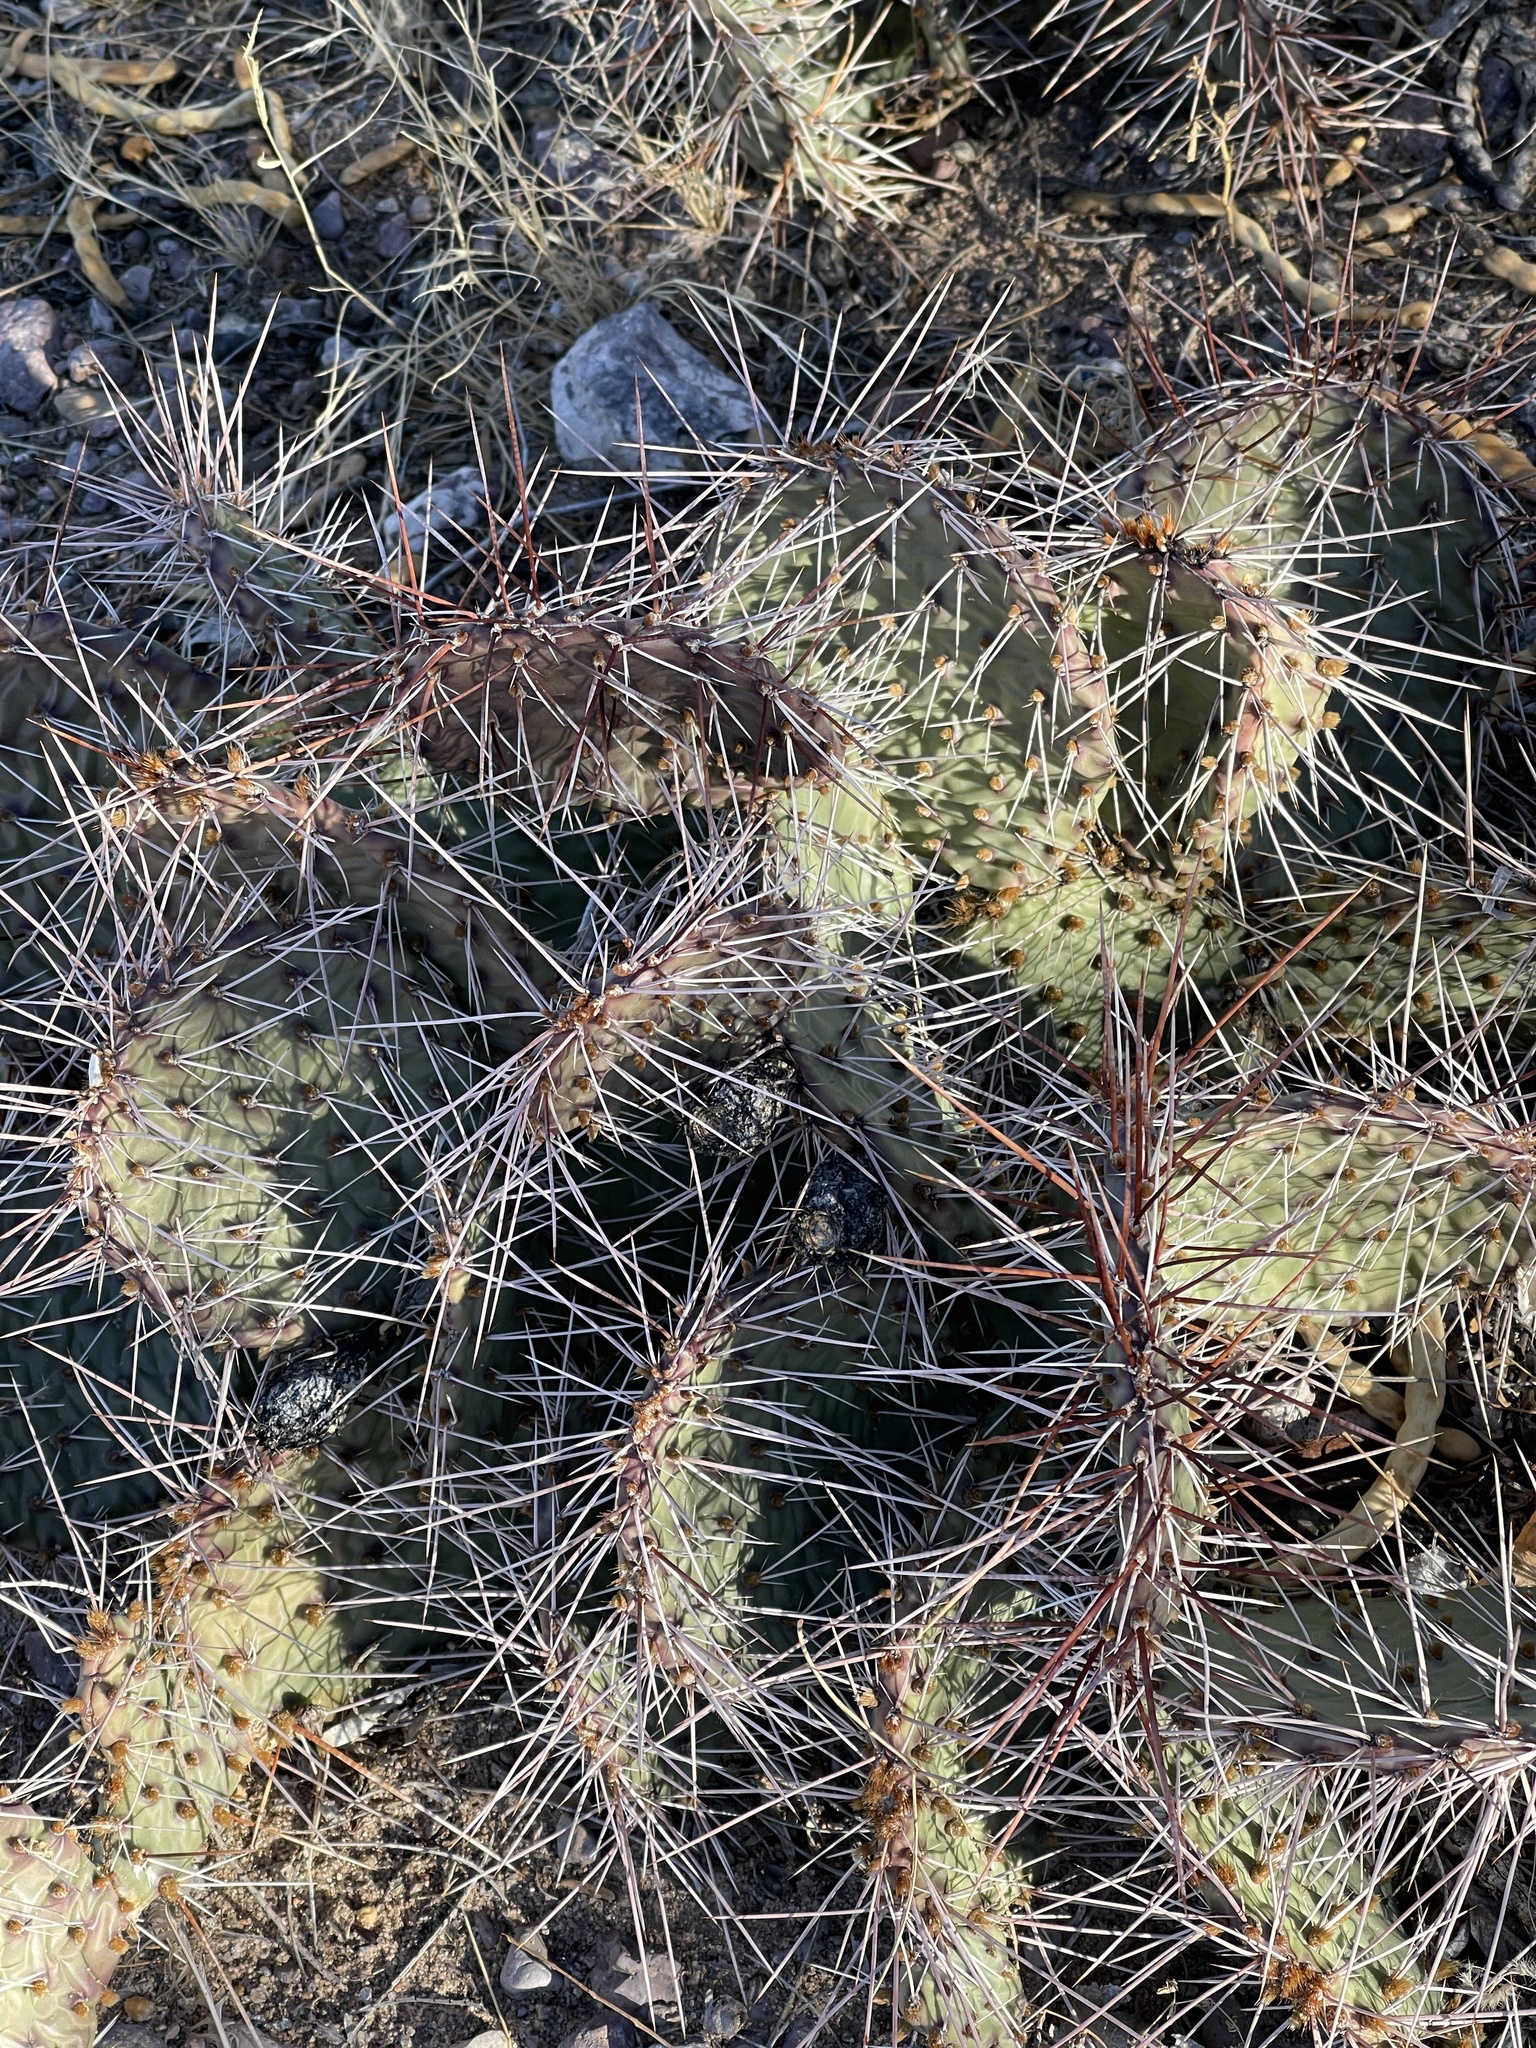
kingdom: Plantae
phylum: Tracheophyta
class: Magnoliopsida
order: Caryophyllales
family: Cactaceae
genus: Opuntia
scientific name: Opuntia macrorhiza
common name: Grassland pricklypear
